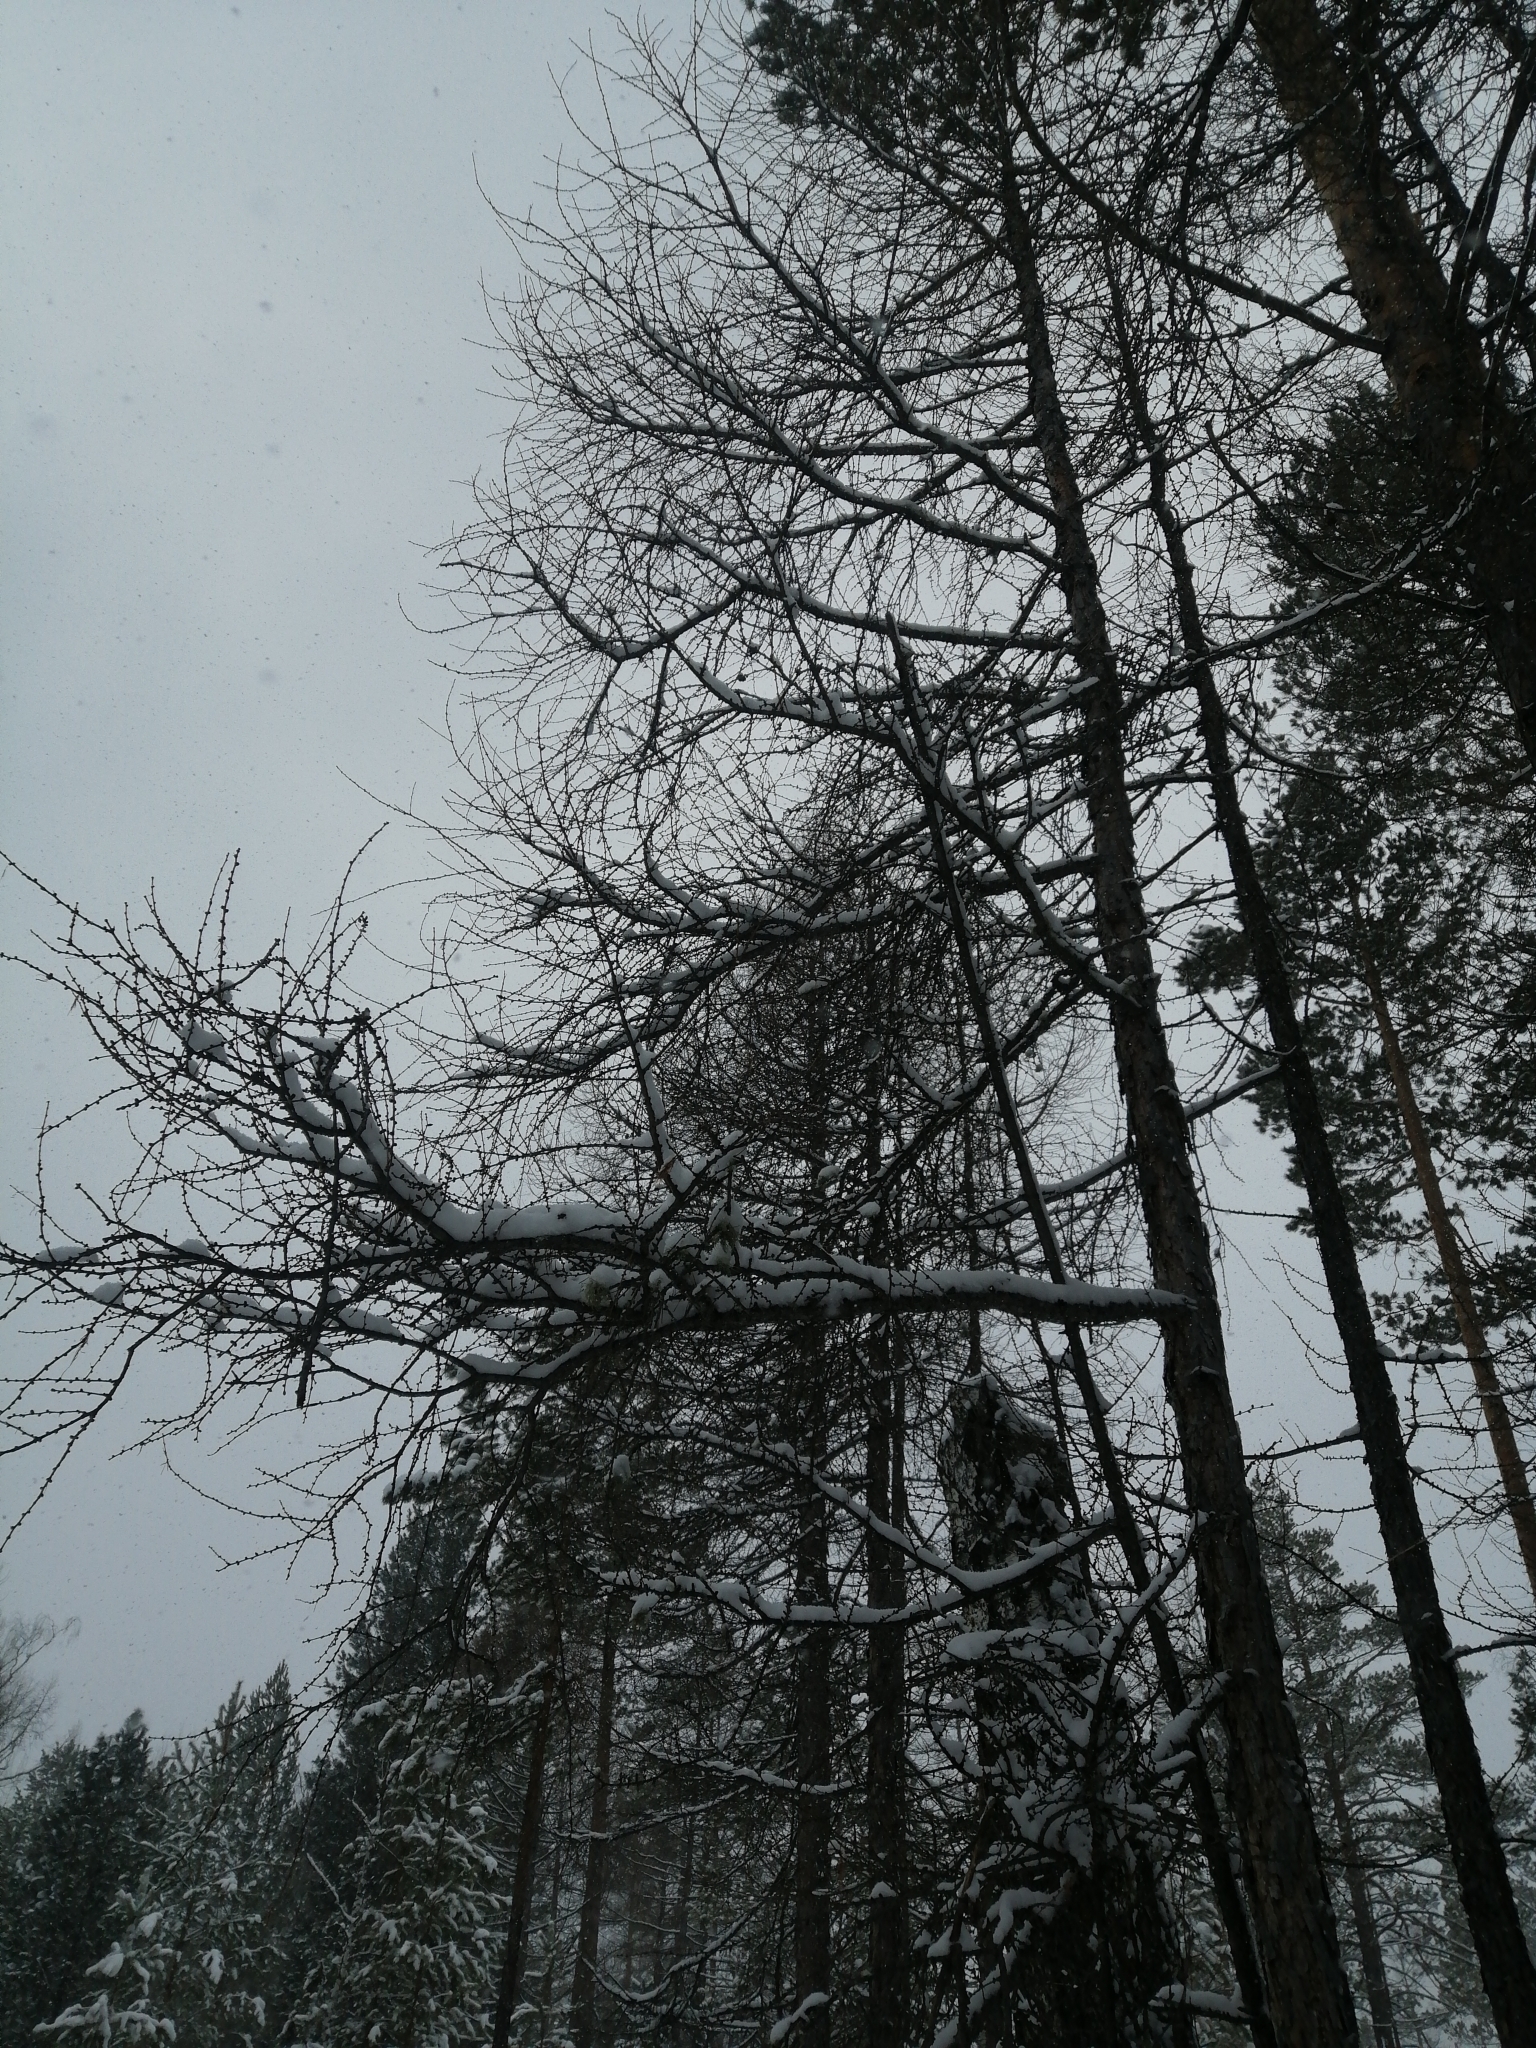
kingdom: Plantae
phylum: Tracheophyta
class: Pinopsida
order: Pinales
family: Pinaceae
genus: Larix
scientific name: Larix sibirica
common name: Siberian larch
